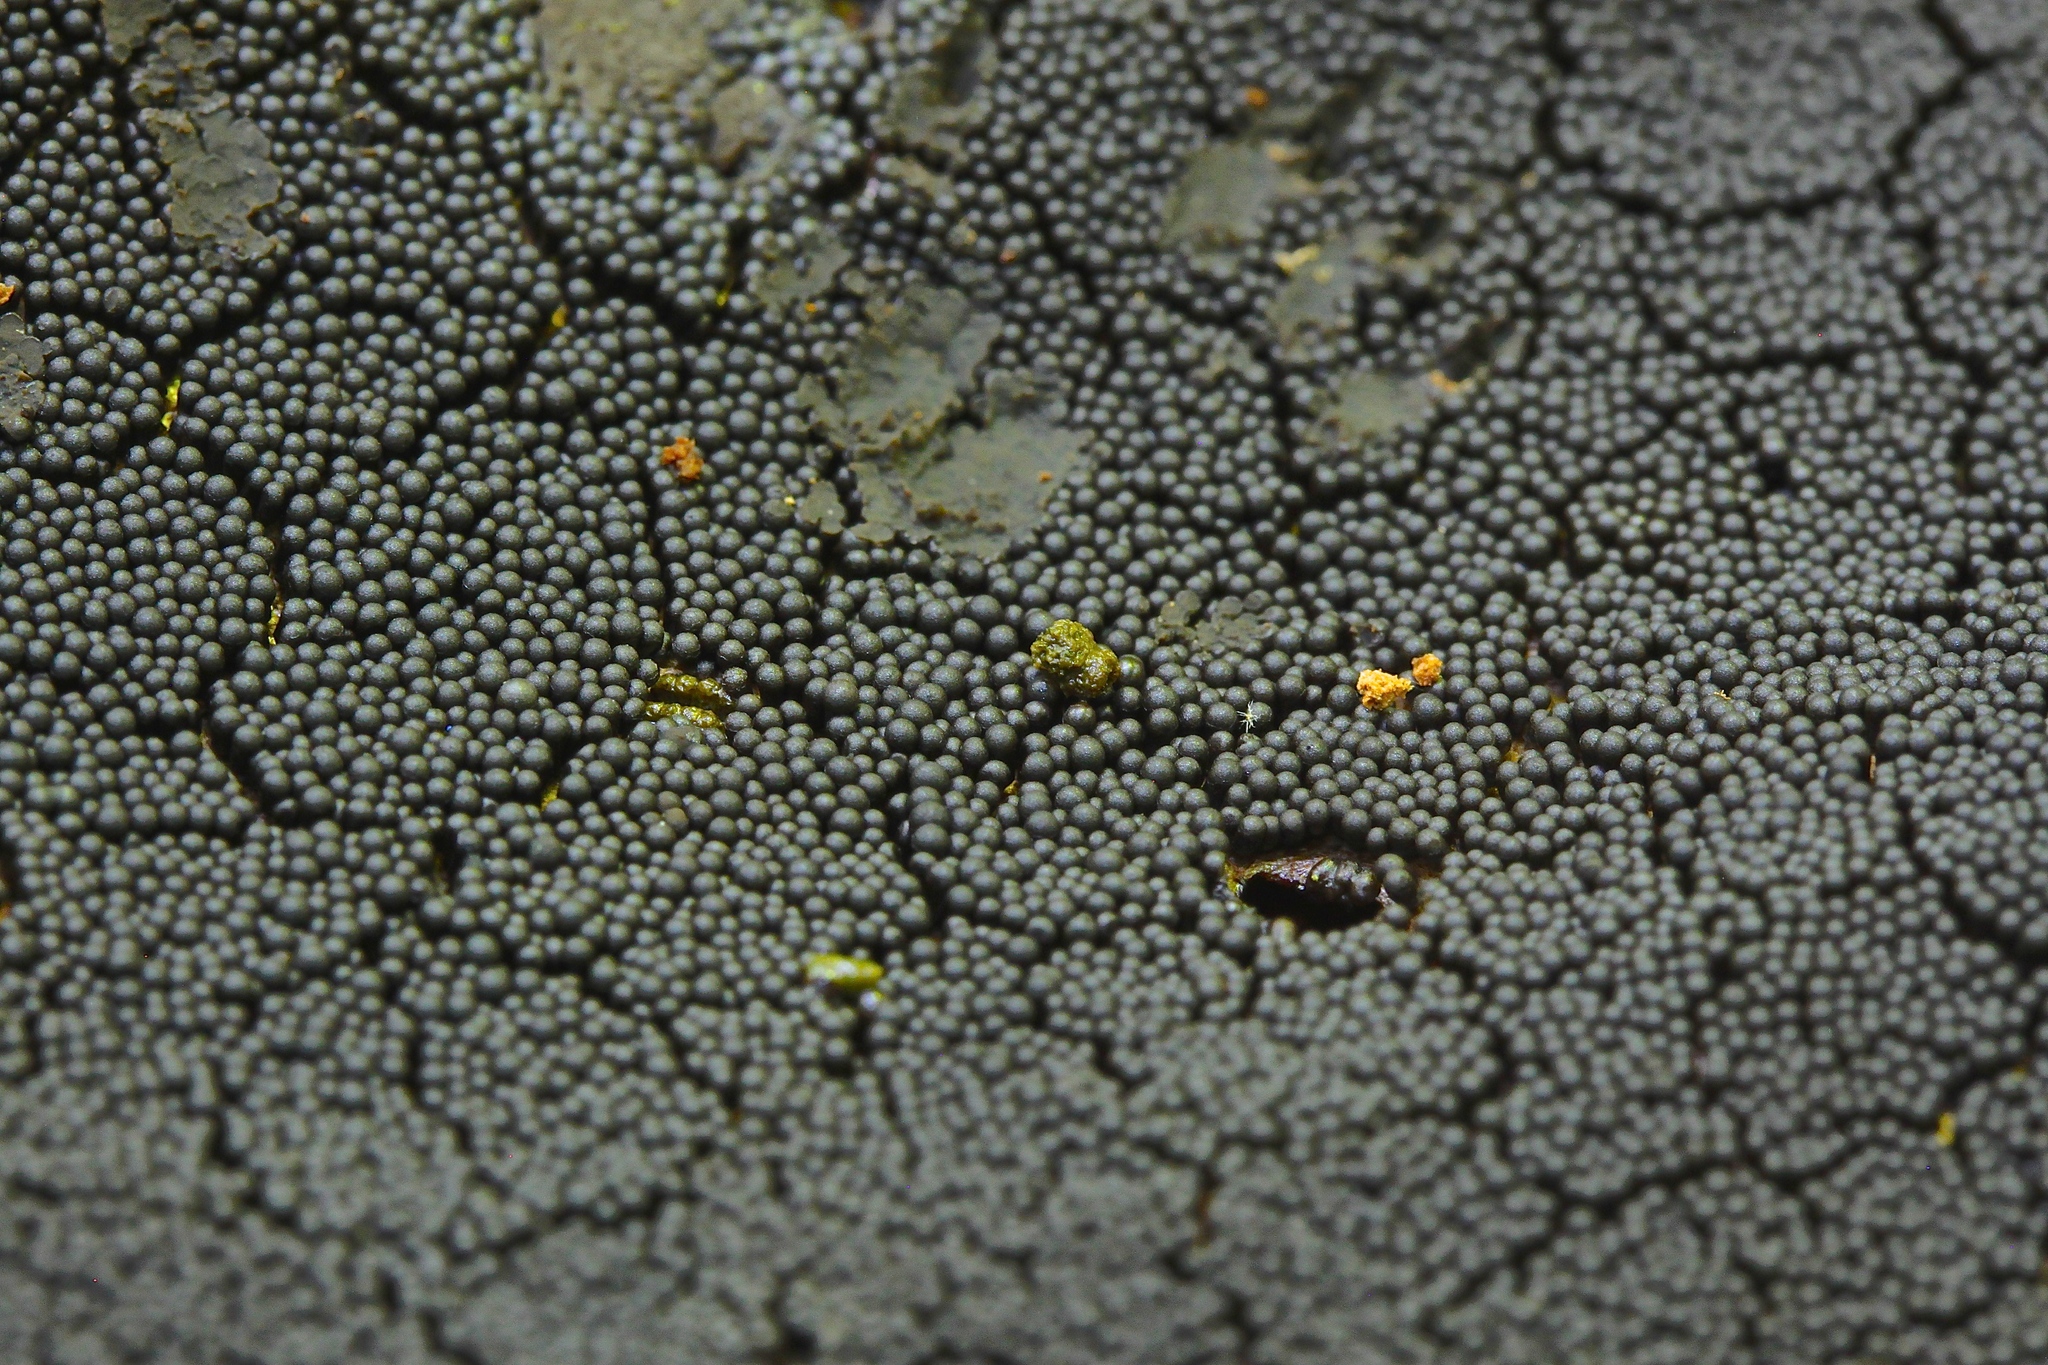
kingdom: Protozoa
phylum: Mycetozoa
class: Myxomycetes
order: Cribrariales
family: Cribrariaceae
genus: Lindbladia
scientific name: Lindbladia tubulina
